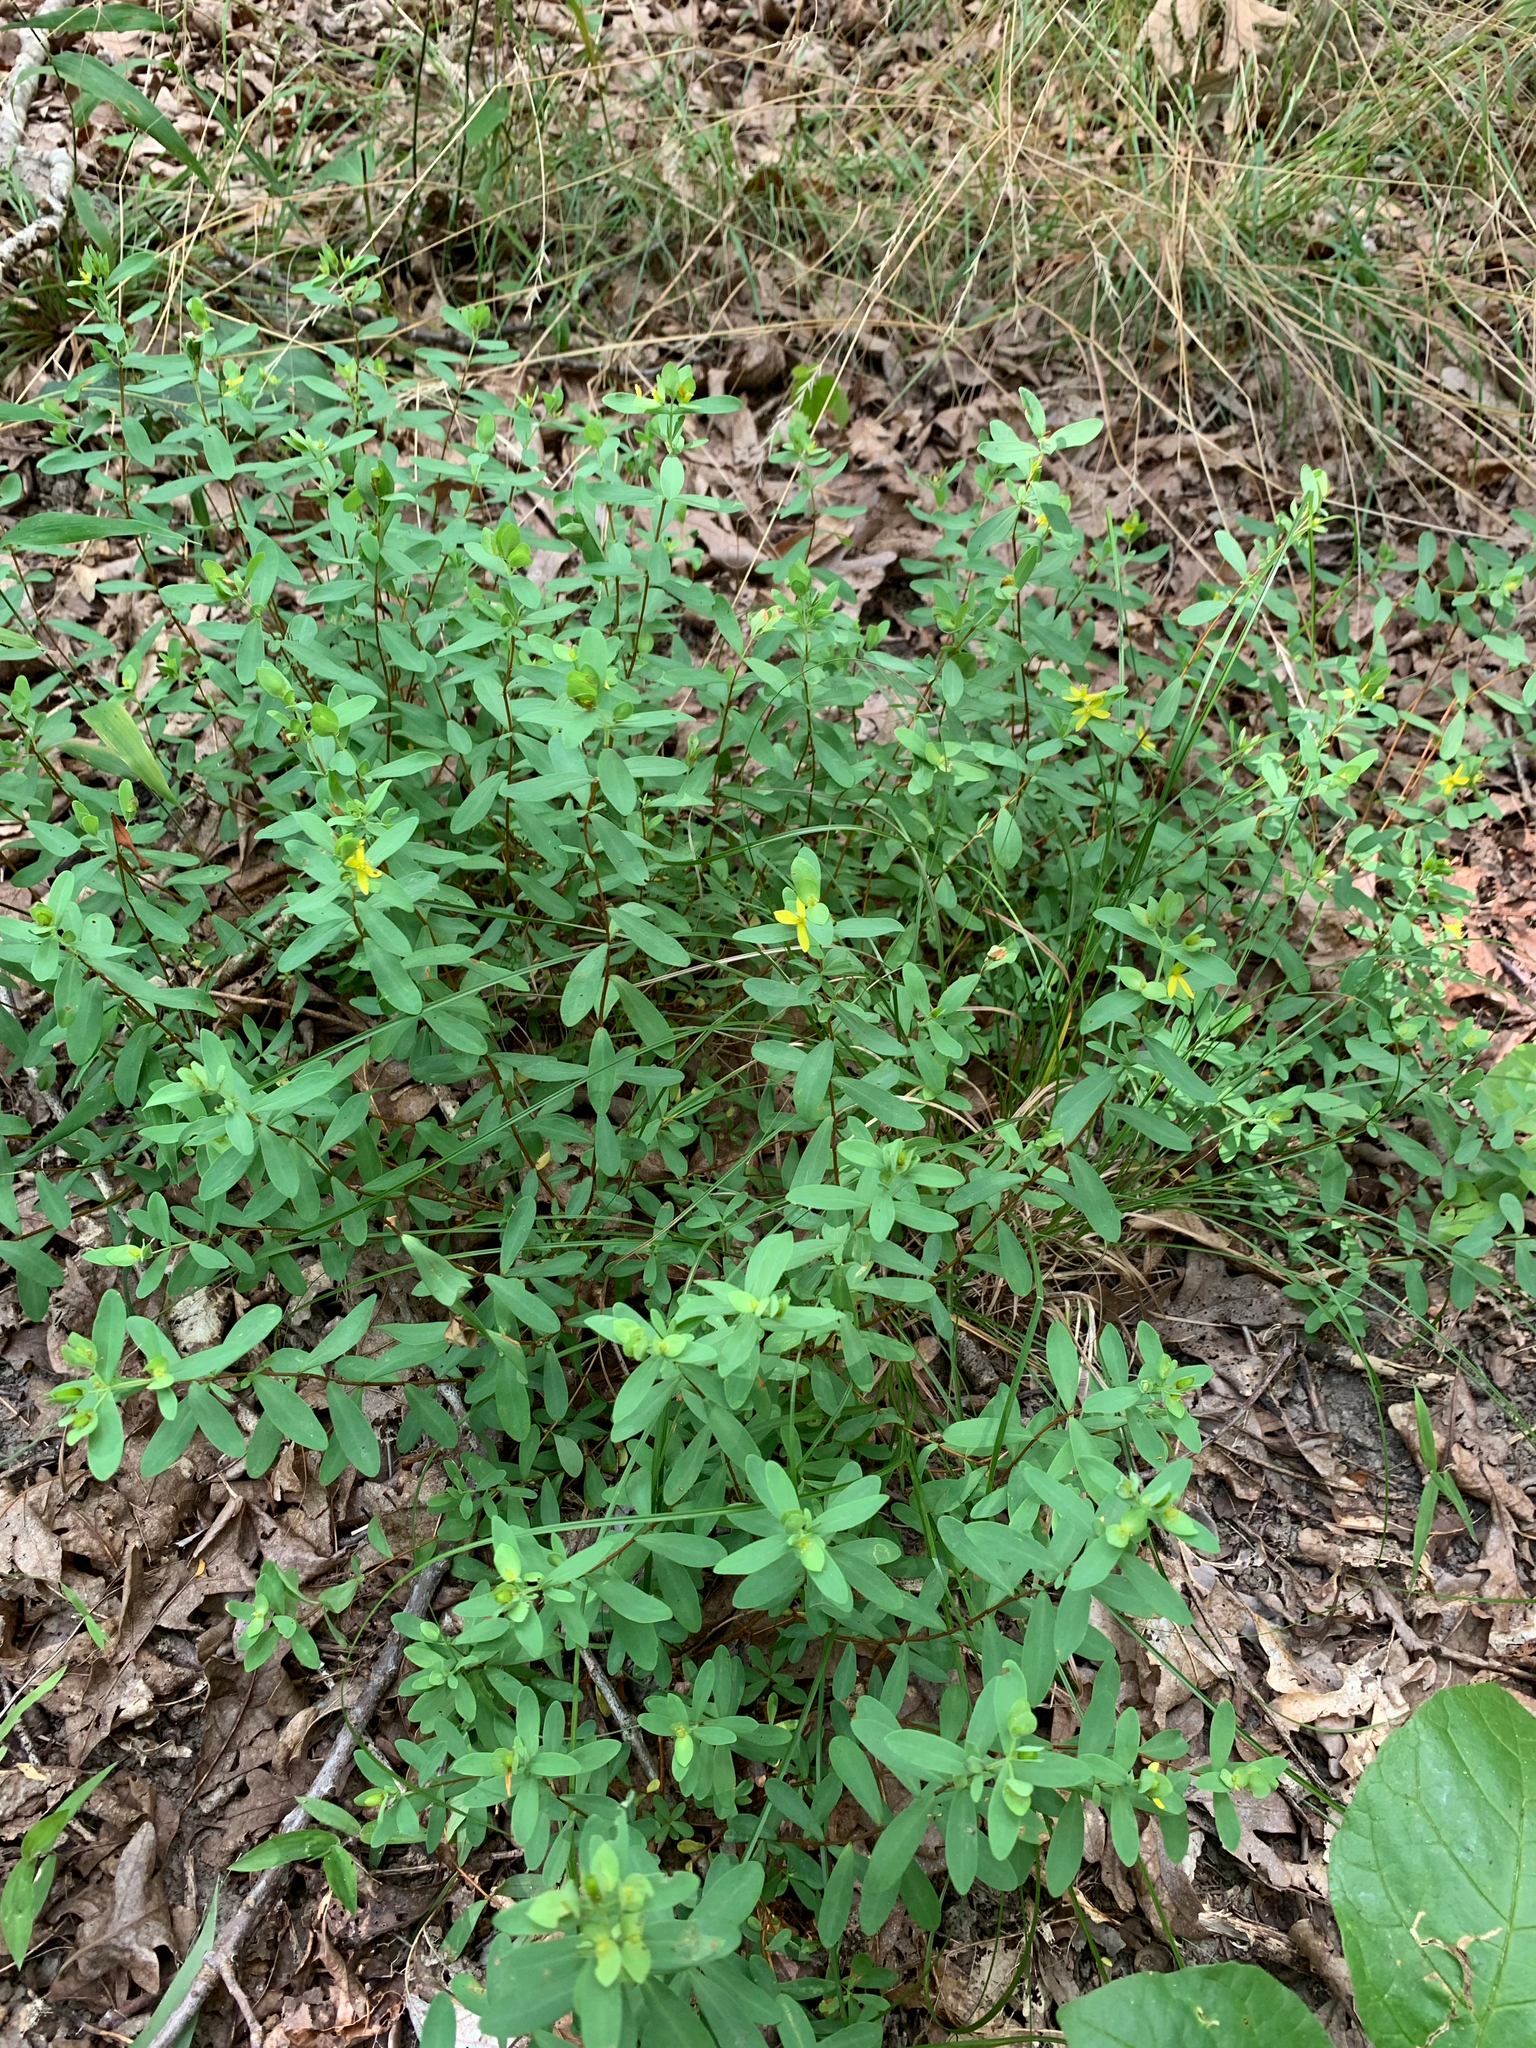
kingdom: Plantae
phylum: Tracheophyta
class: Magnoliopsida
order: Malpighiales
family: Hypericaceae
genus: Hypericum
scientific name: Hypericum hypericoides
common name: St. andrew's cross
